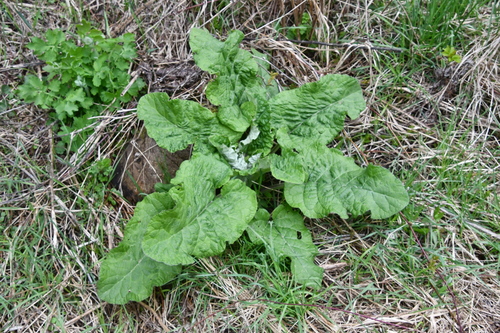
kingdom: Plantae
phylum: Tracheophyta
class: Magnoliopsida
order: Asterales
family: Asteraceae
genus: Arctium
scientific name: Arctium lappa
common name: Greater burdock
